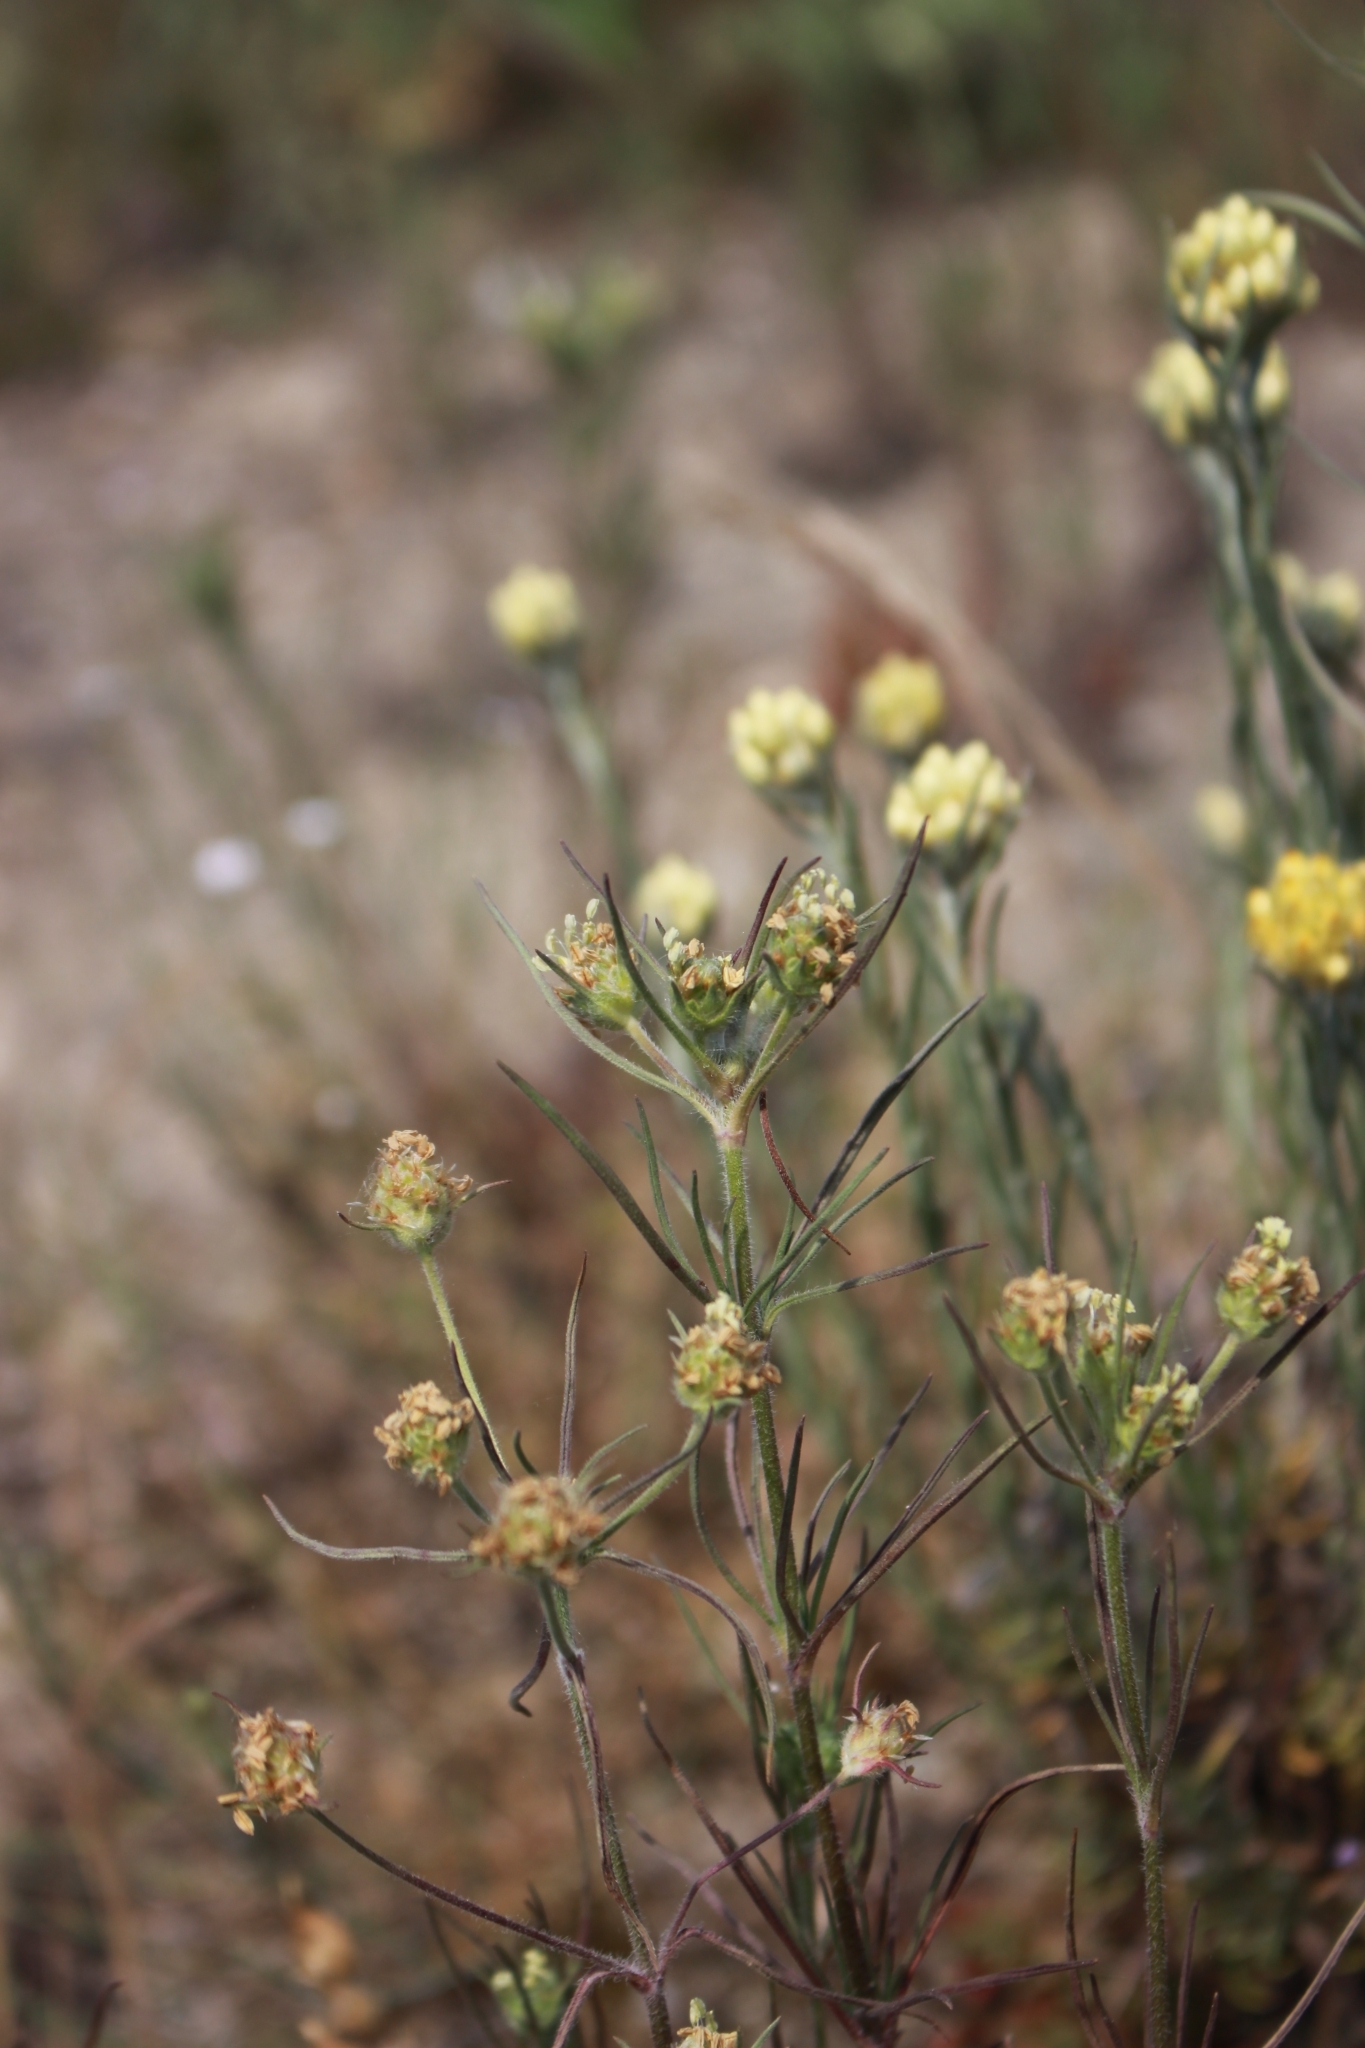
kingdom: Plantae
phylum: Tracheophyta
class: Magnoliopsida
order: Lamiales
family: Plantaginaceae
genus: Plantago
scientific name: Plantago arenaria
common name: Branched plantain
